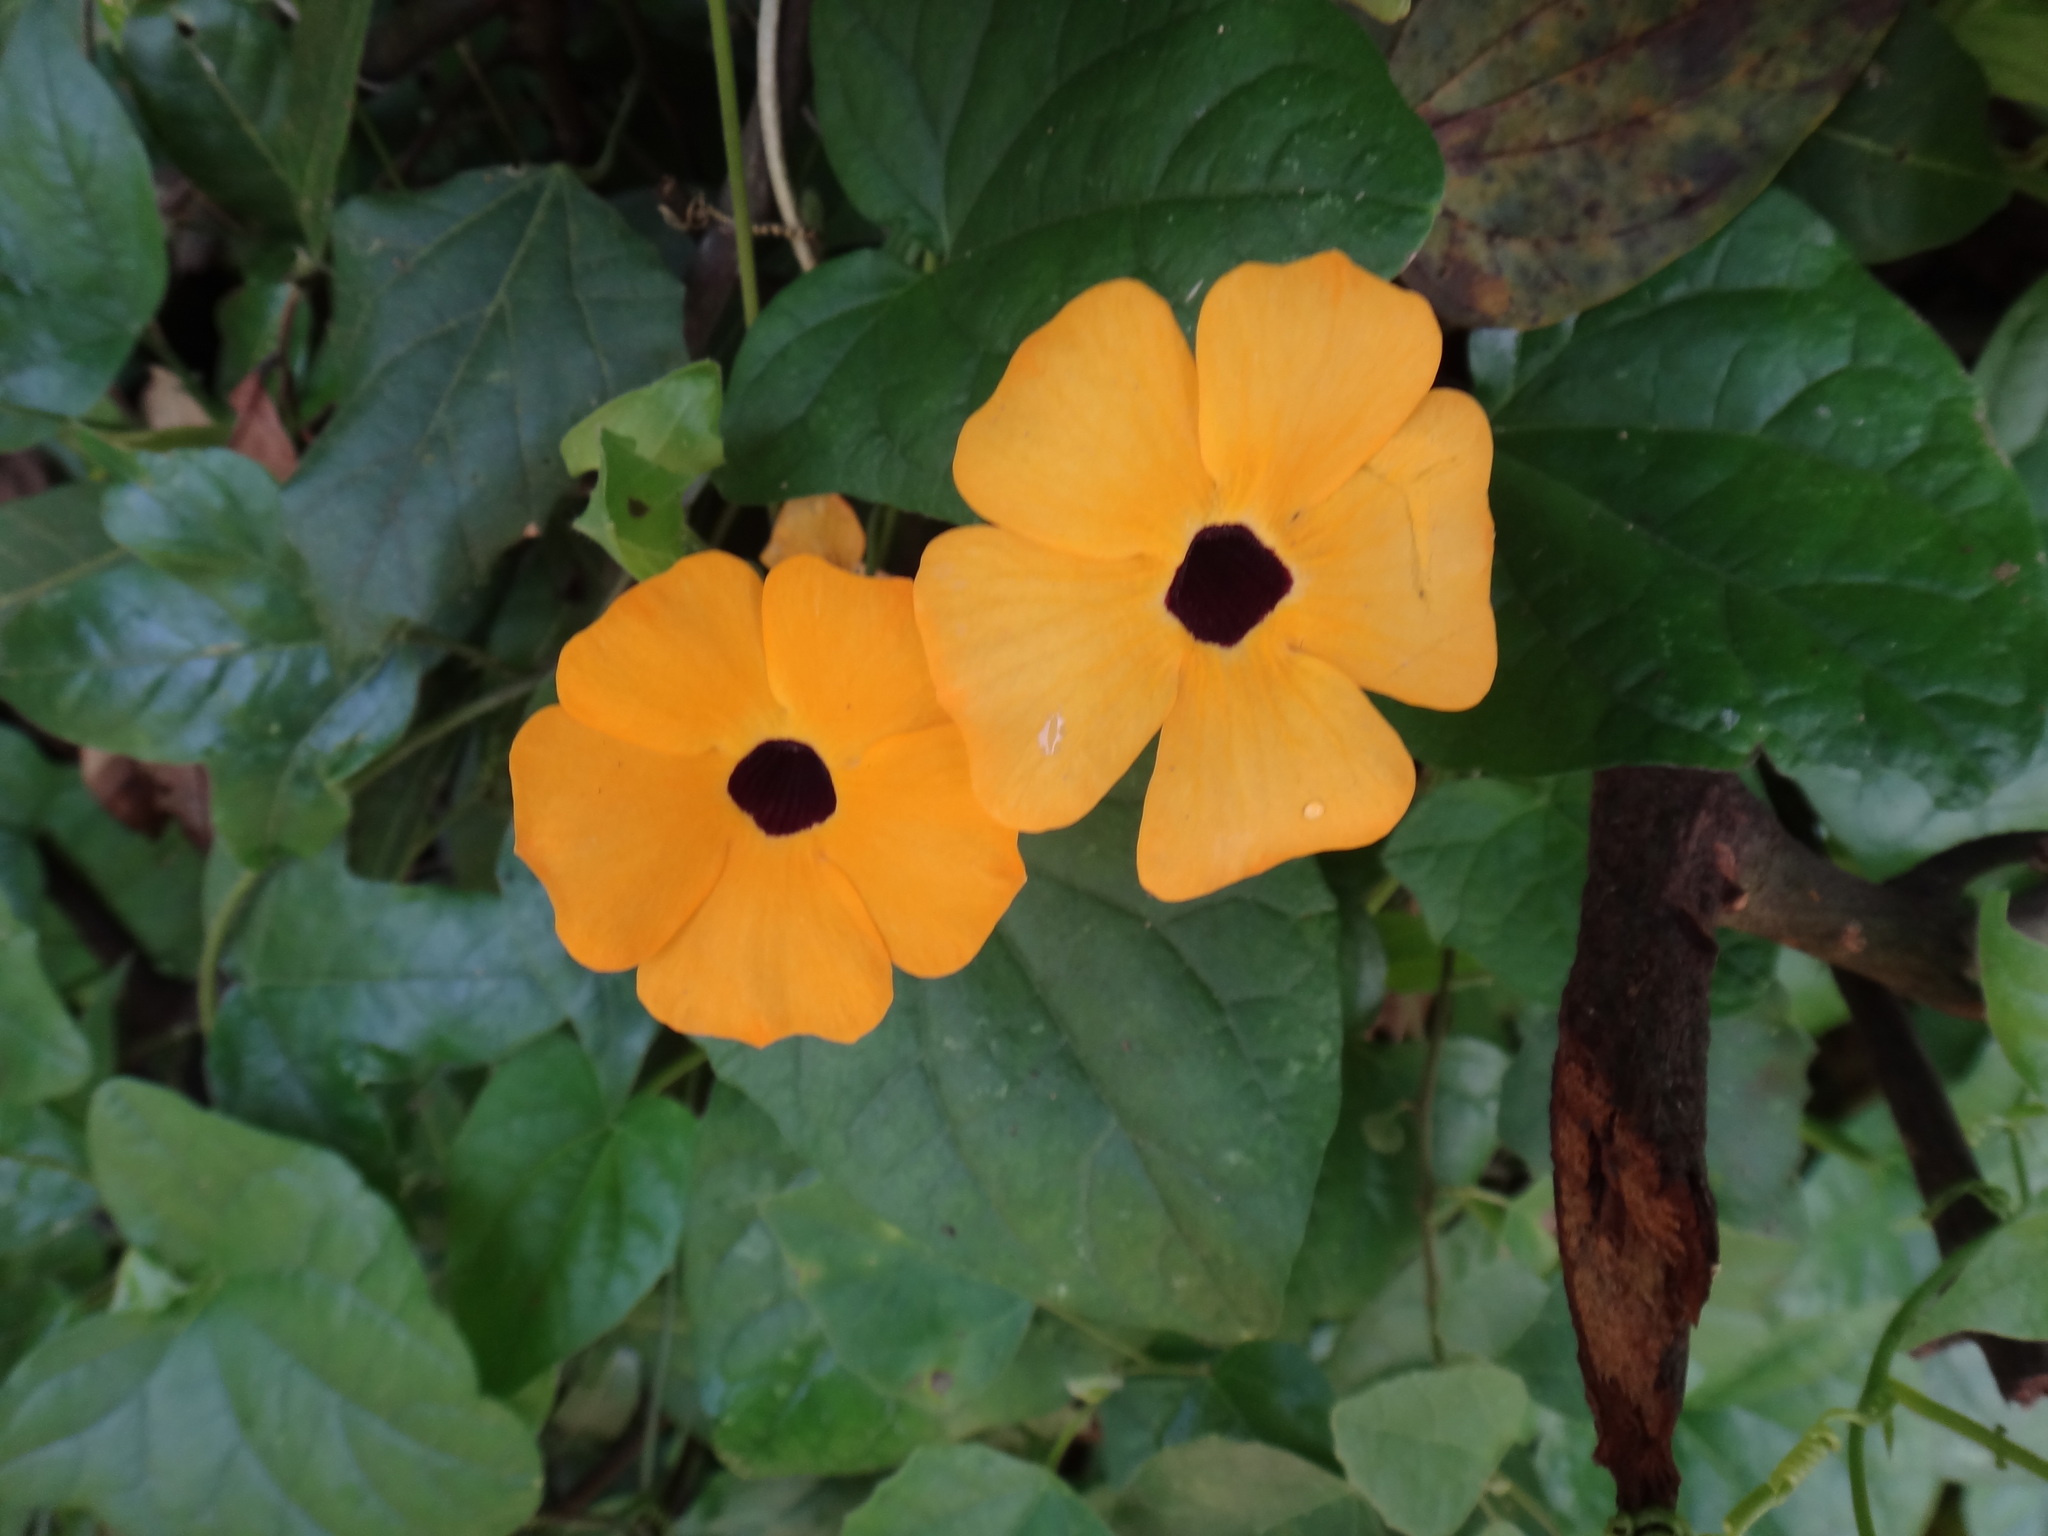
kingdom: Plantae
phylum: Tracheophyta
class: Magnoliopsida
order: Lamiales
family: Acanthaceae
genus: Thunbergia
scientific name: Thunbergia alata
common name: Blackeyed susan vine
